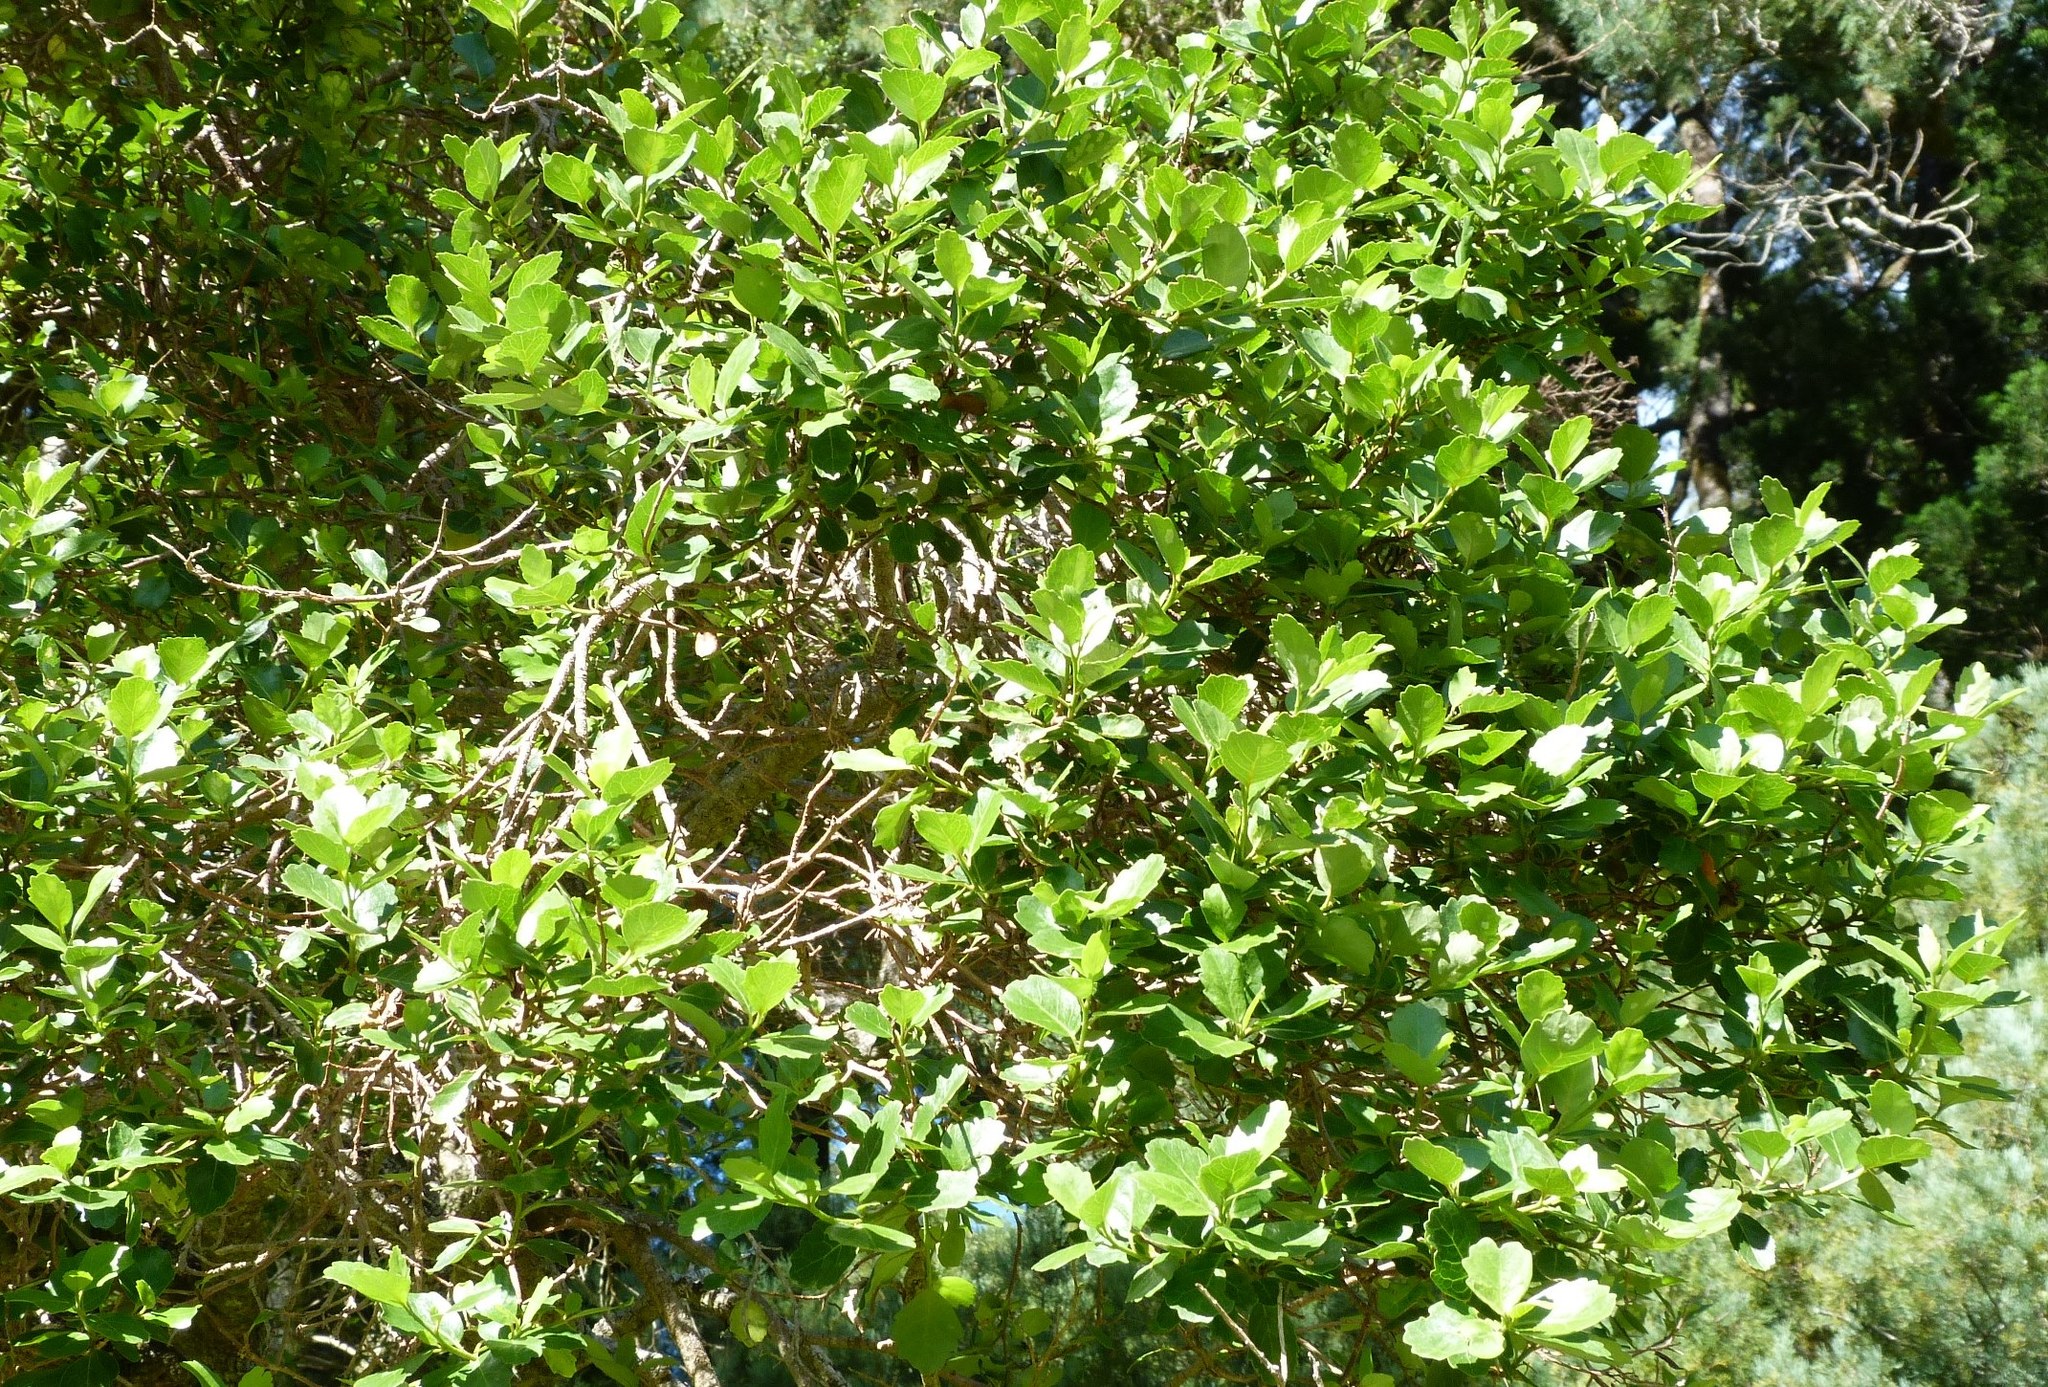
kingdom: Plantae
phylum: Tracheophyta
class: Magnoliopsida
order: Apiales
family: Pennantiaceae
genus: Pennantia
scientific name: Pennantia corymbosa
